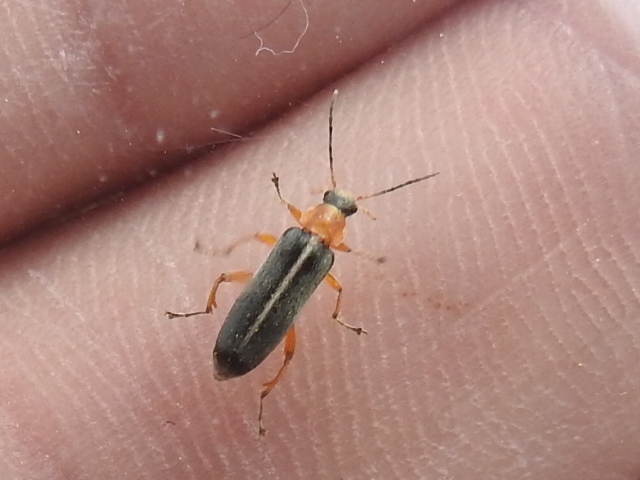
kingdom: Animalia
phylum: Arthropoda
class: Insecta
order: Coleoptera
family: Melandryidae
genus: Osphya
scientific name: Osphya varians
